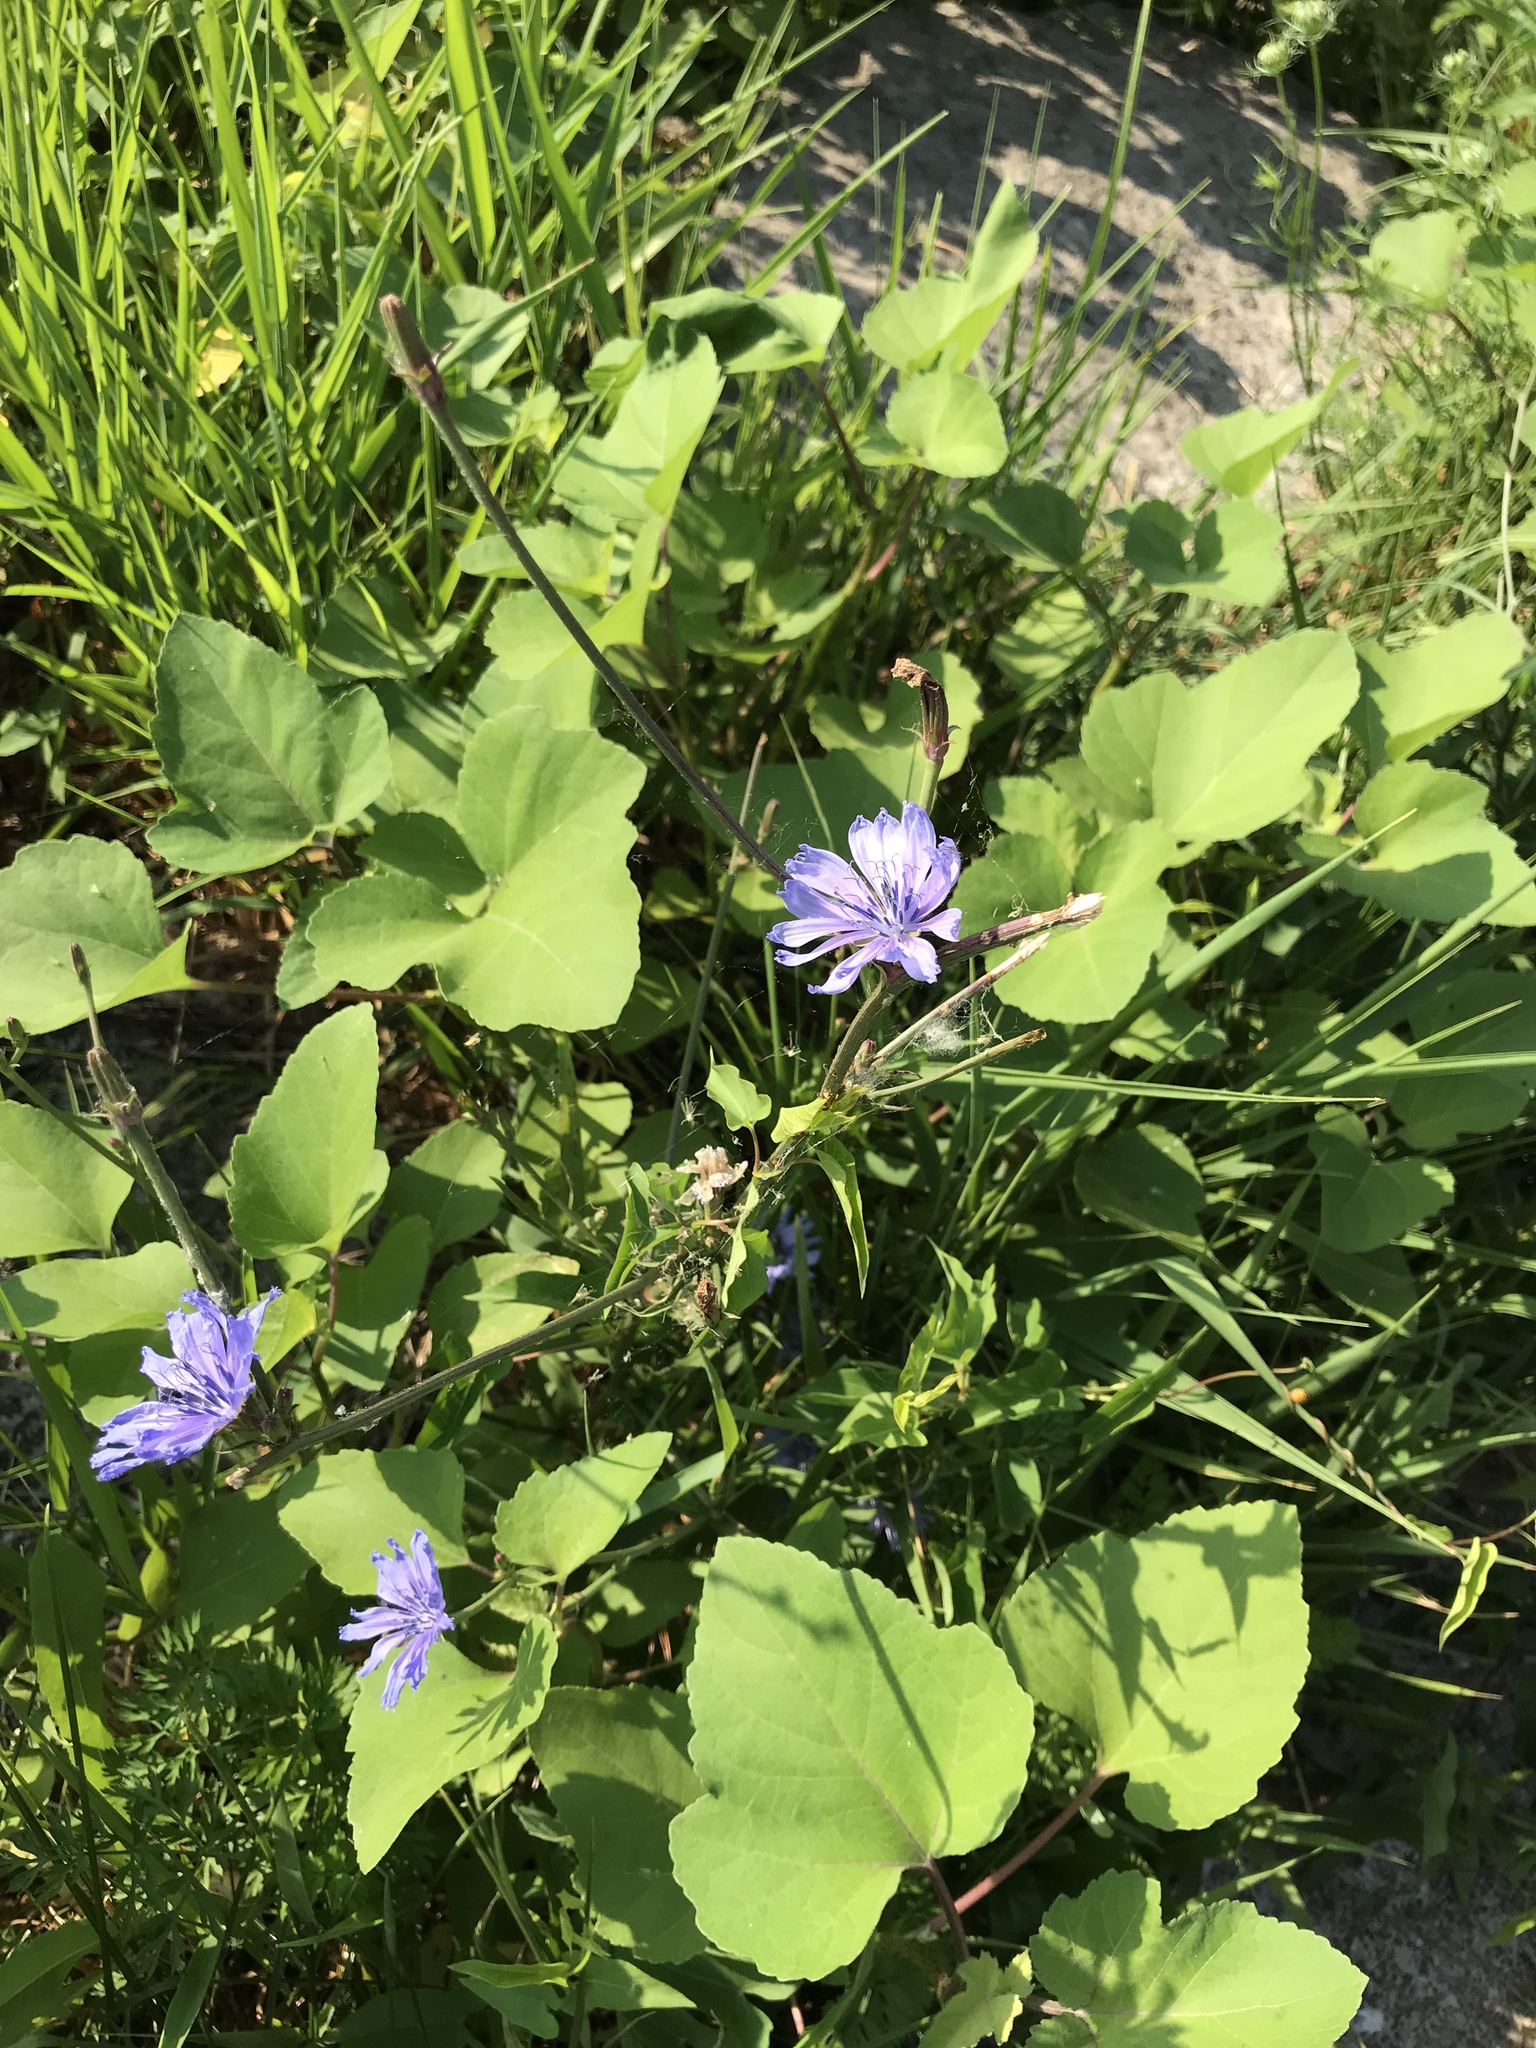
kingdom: Plantae
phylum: Tracheophyta
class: Magnoliopsida
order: Asterales
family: Asteraceae
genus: Cichorium
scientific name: Cichorium intybus
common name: Chicory
